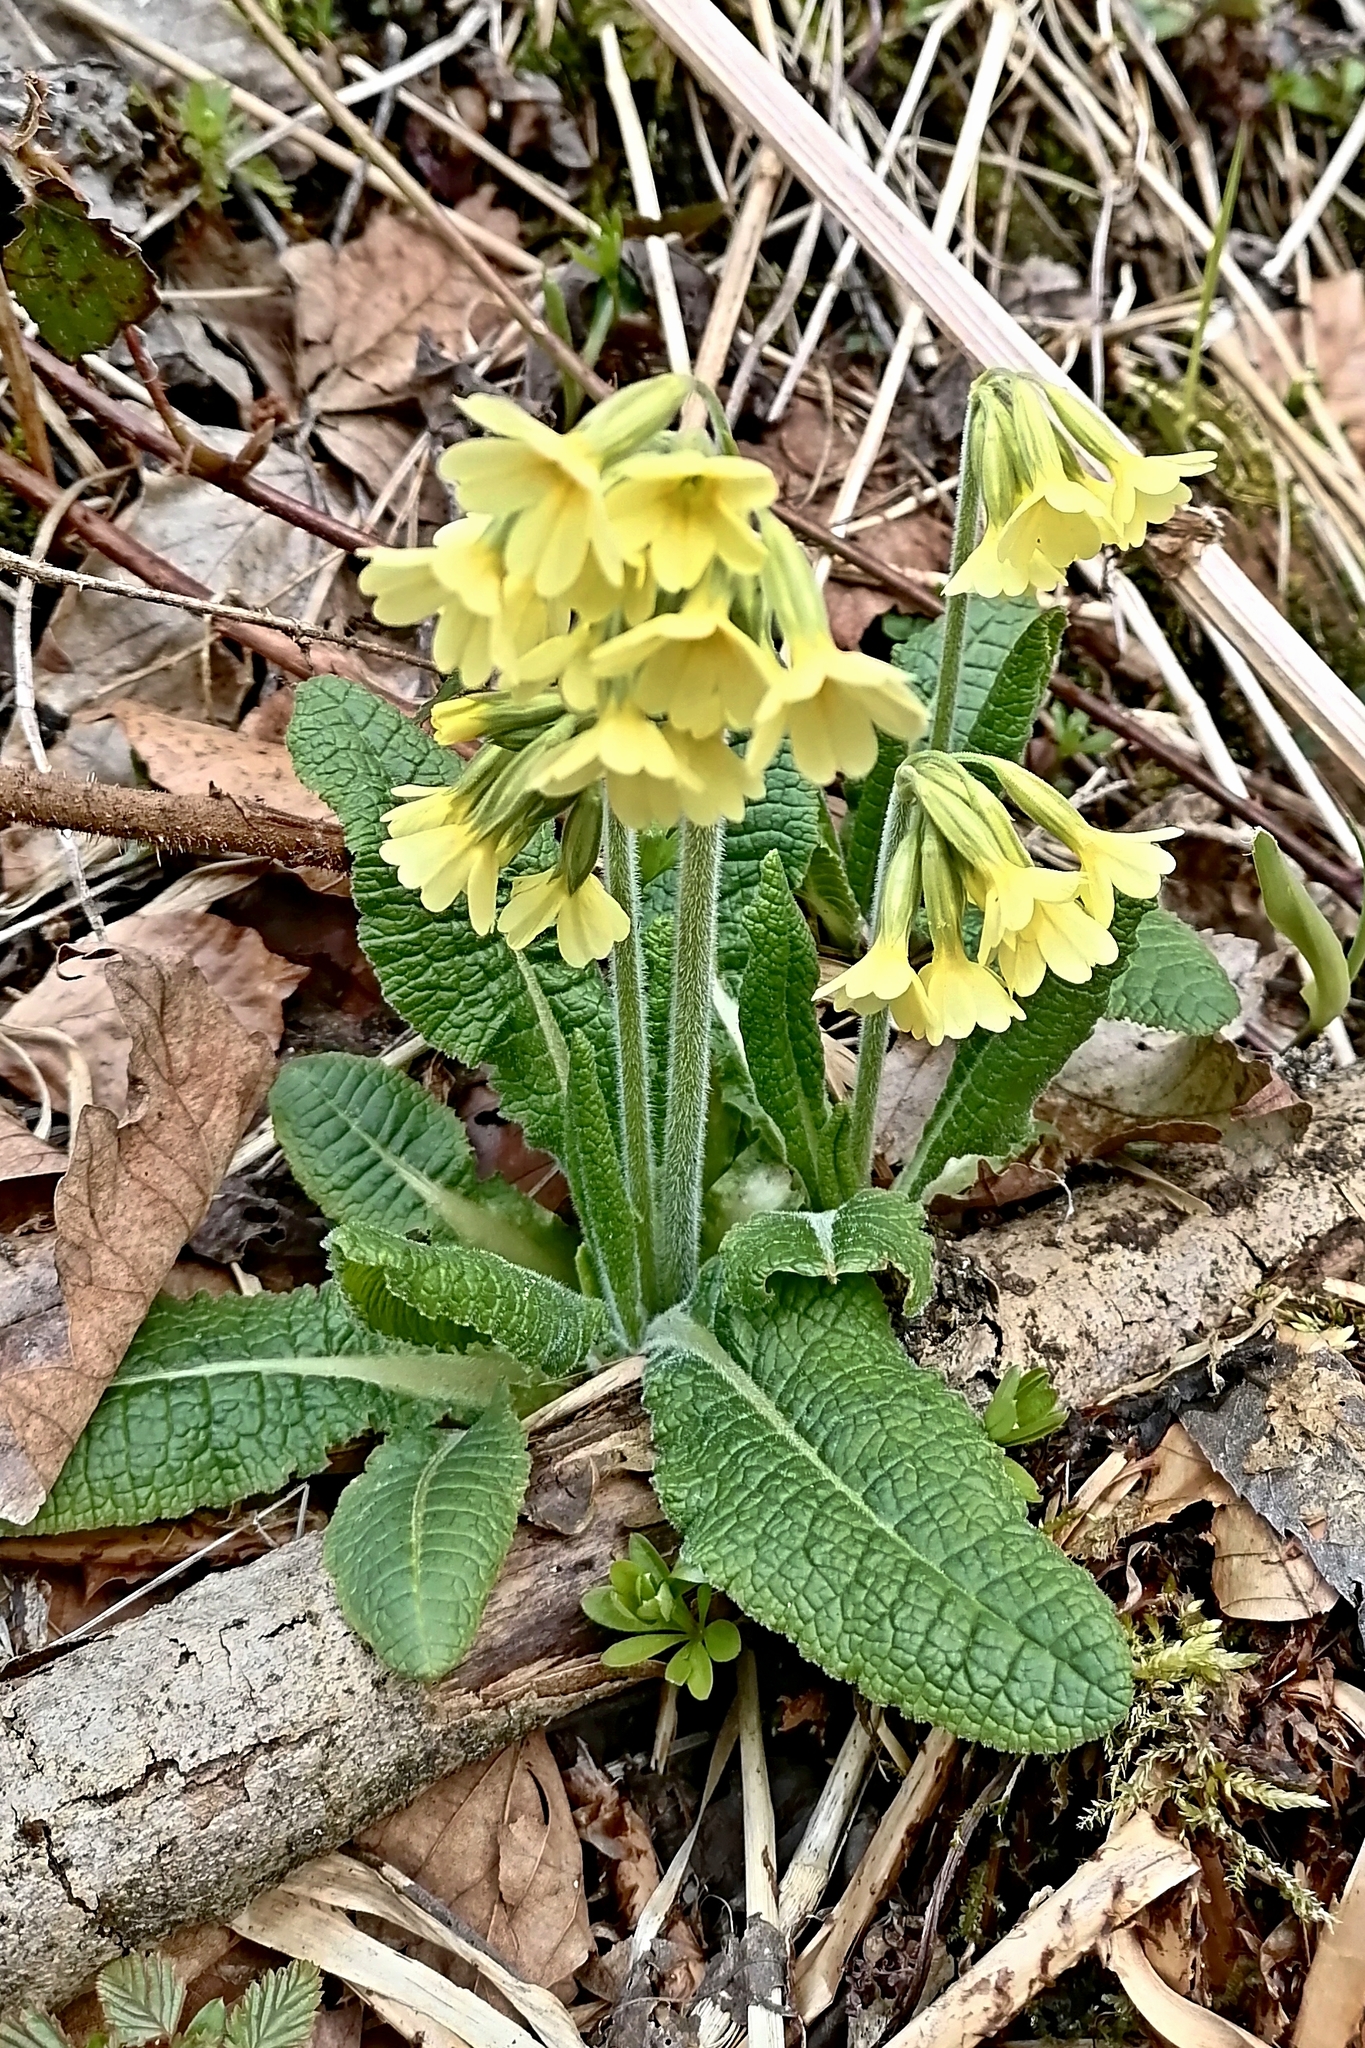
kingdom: Plantae
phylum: Tracheophyta
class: Magnoliopsida
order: Ericales
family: Primulaceae
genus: Primula
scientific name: Primula elatior
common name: Oxlip
